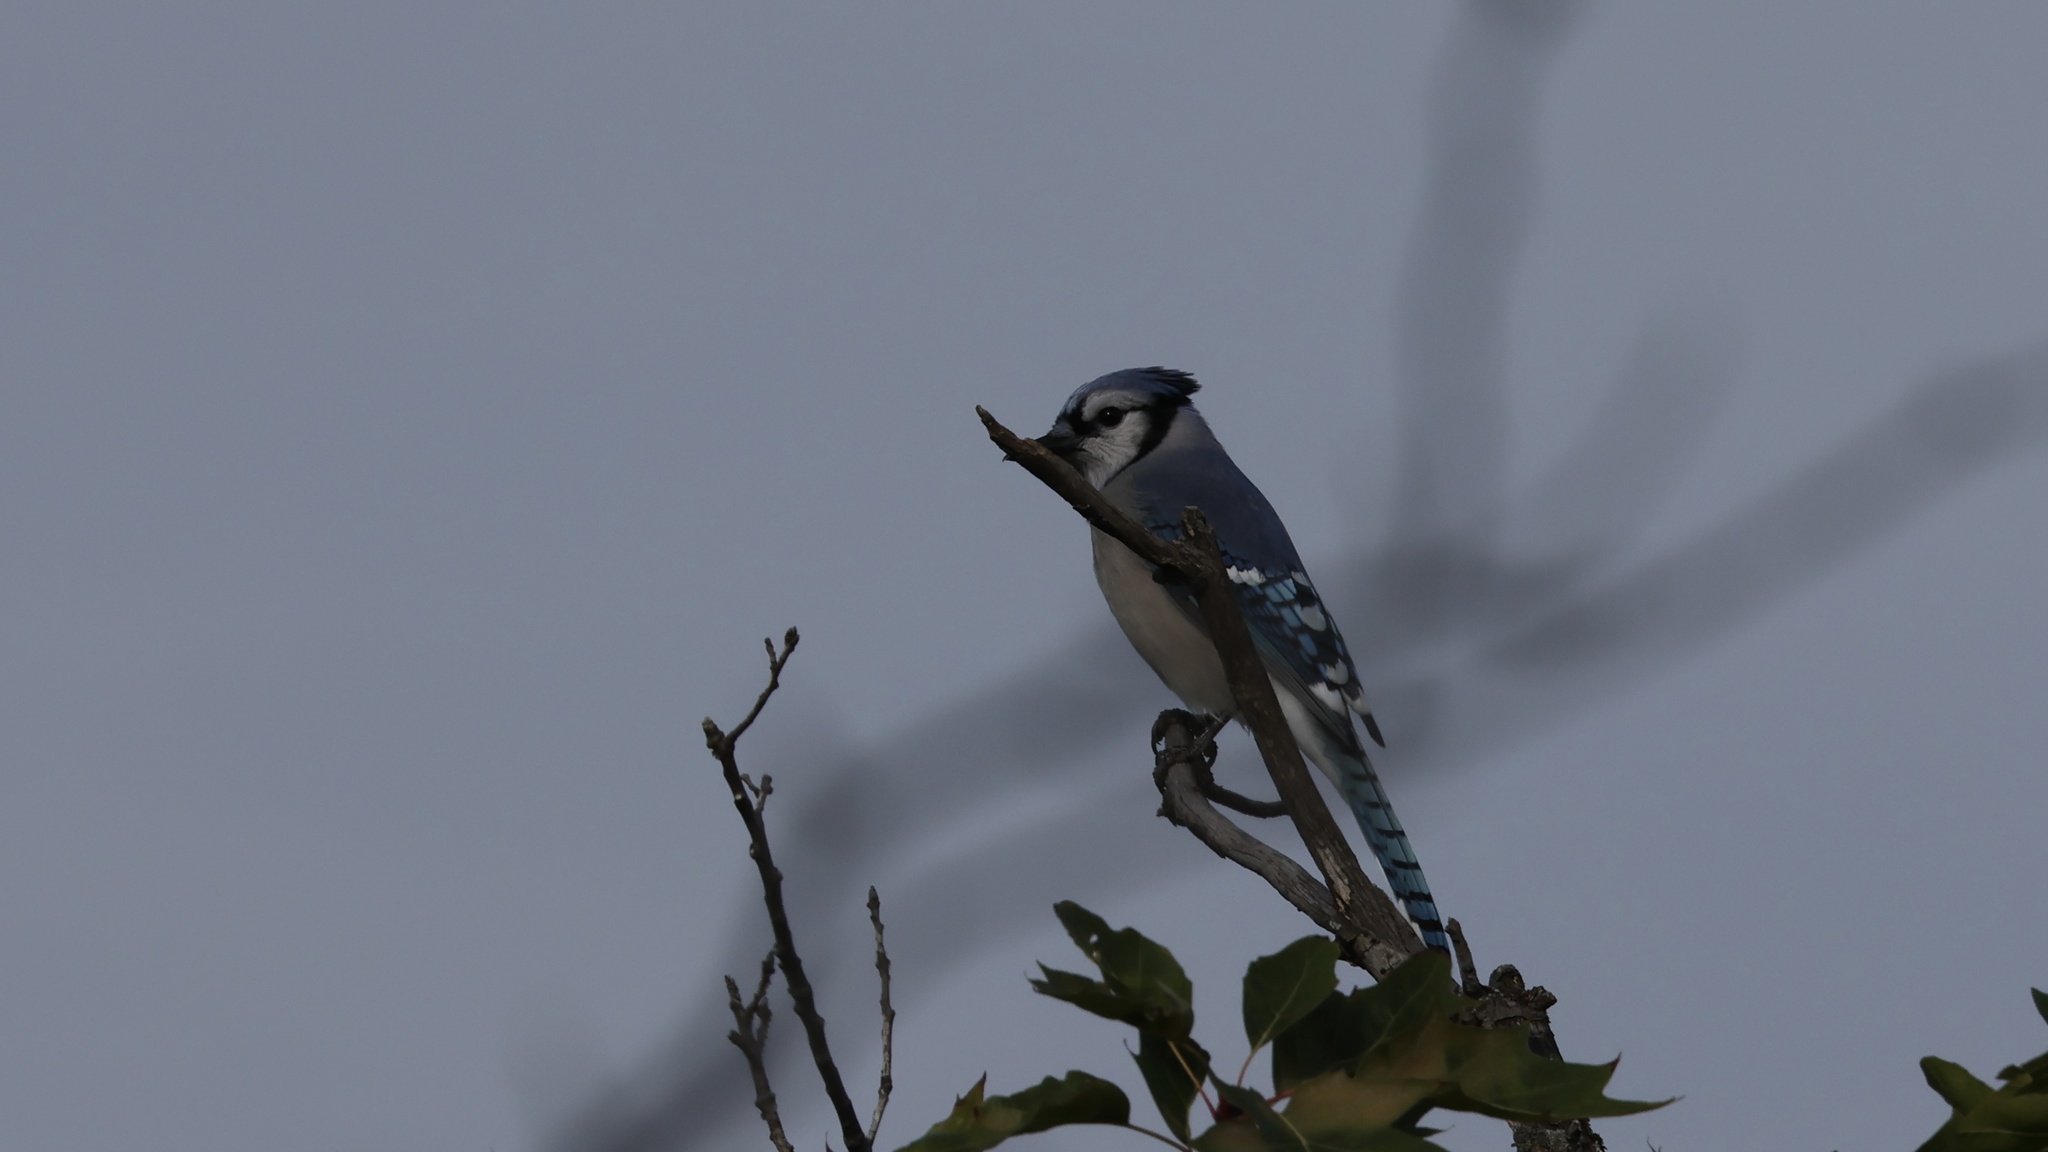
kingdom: Animalia
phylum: Chordata
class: Aves
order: Passeriformes
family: Corvidae
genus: Cyanocitta
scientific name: Cyanocitta cristata
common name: Blue jay
